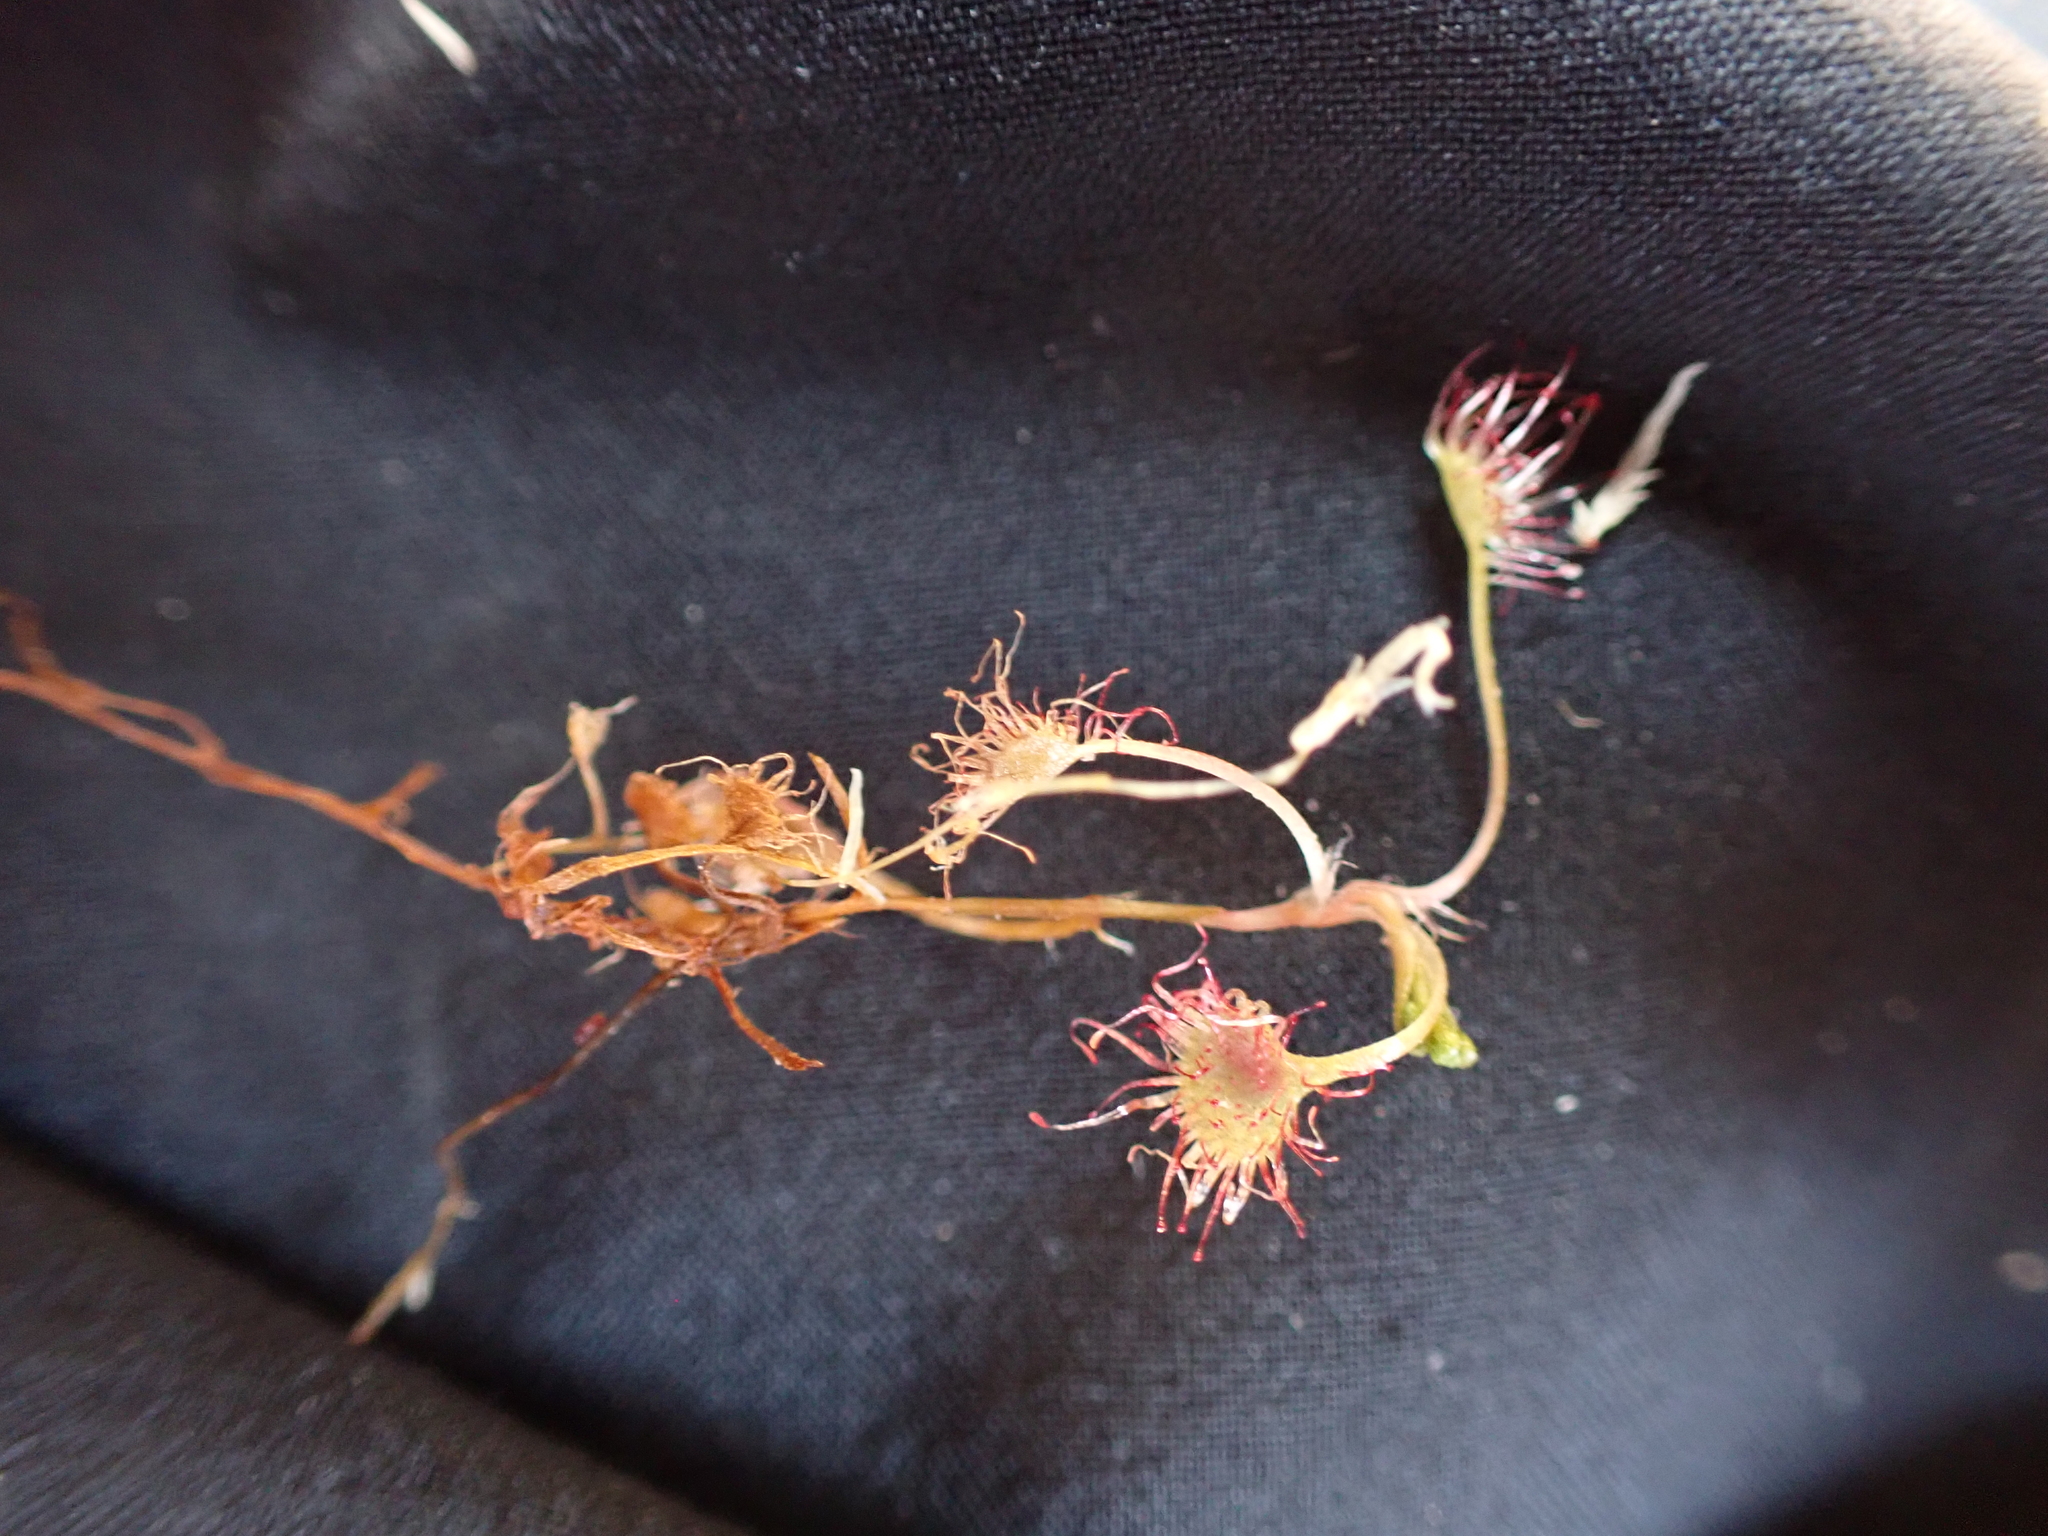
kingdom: Plantae
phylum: Tracheophyta
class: Magnoliopsida
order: Caryophyllales
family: Droseraceae
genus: Drosera
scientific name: Drosera rotundifolia
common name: Round-leaved sundew
